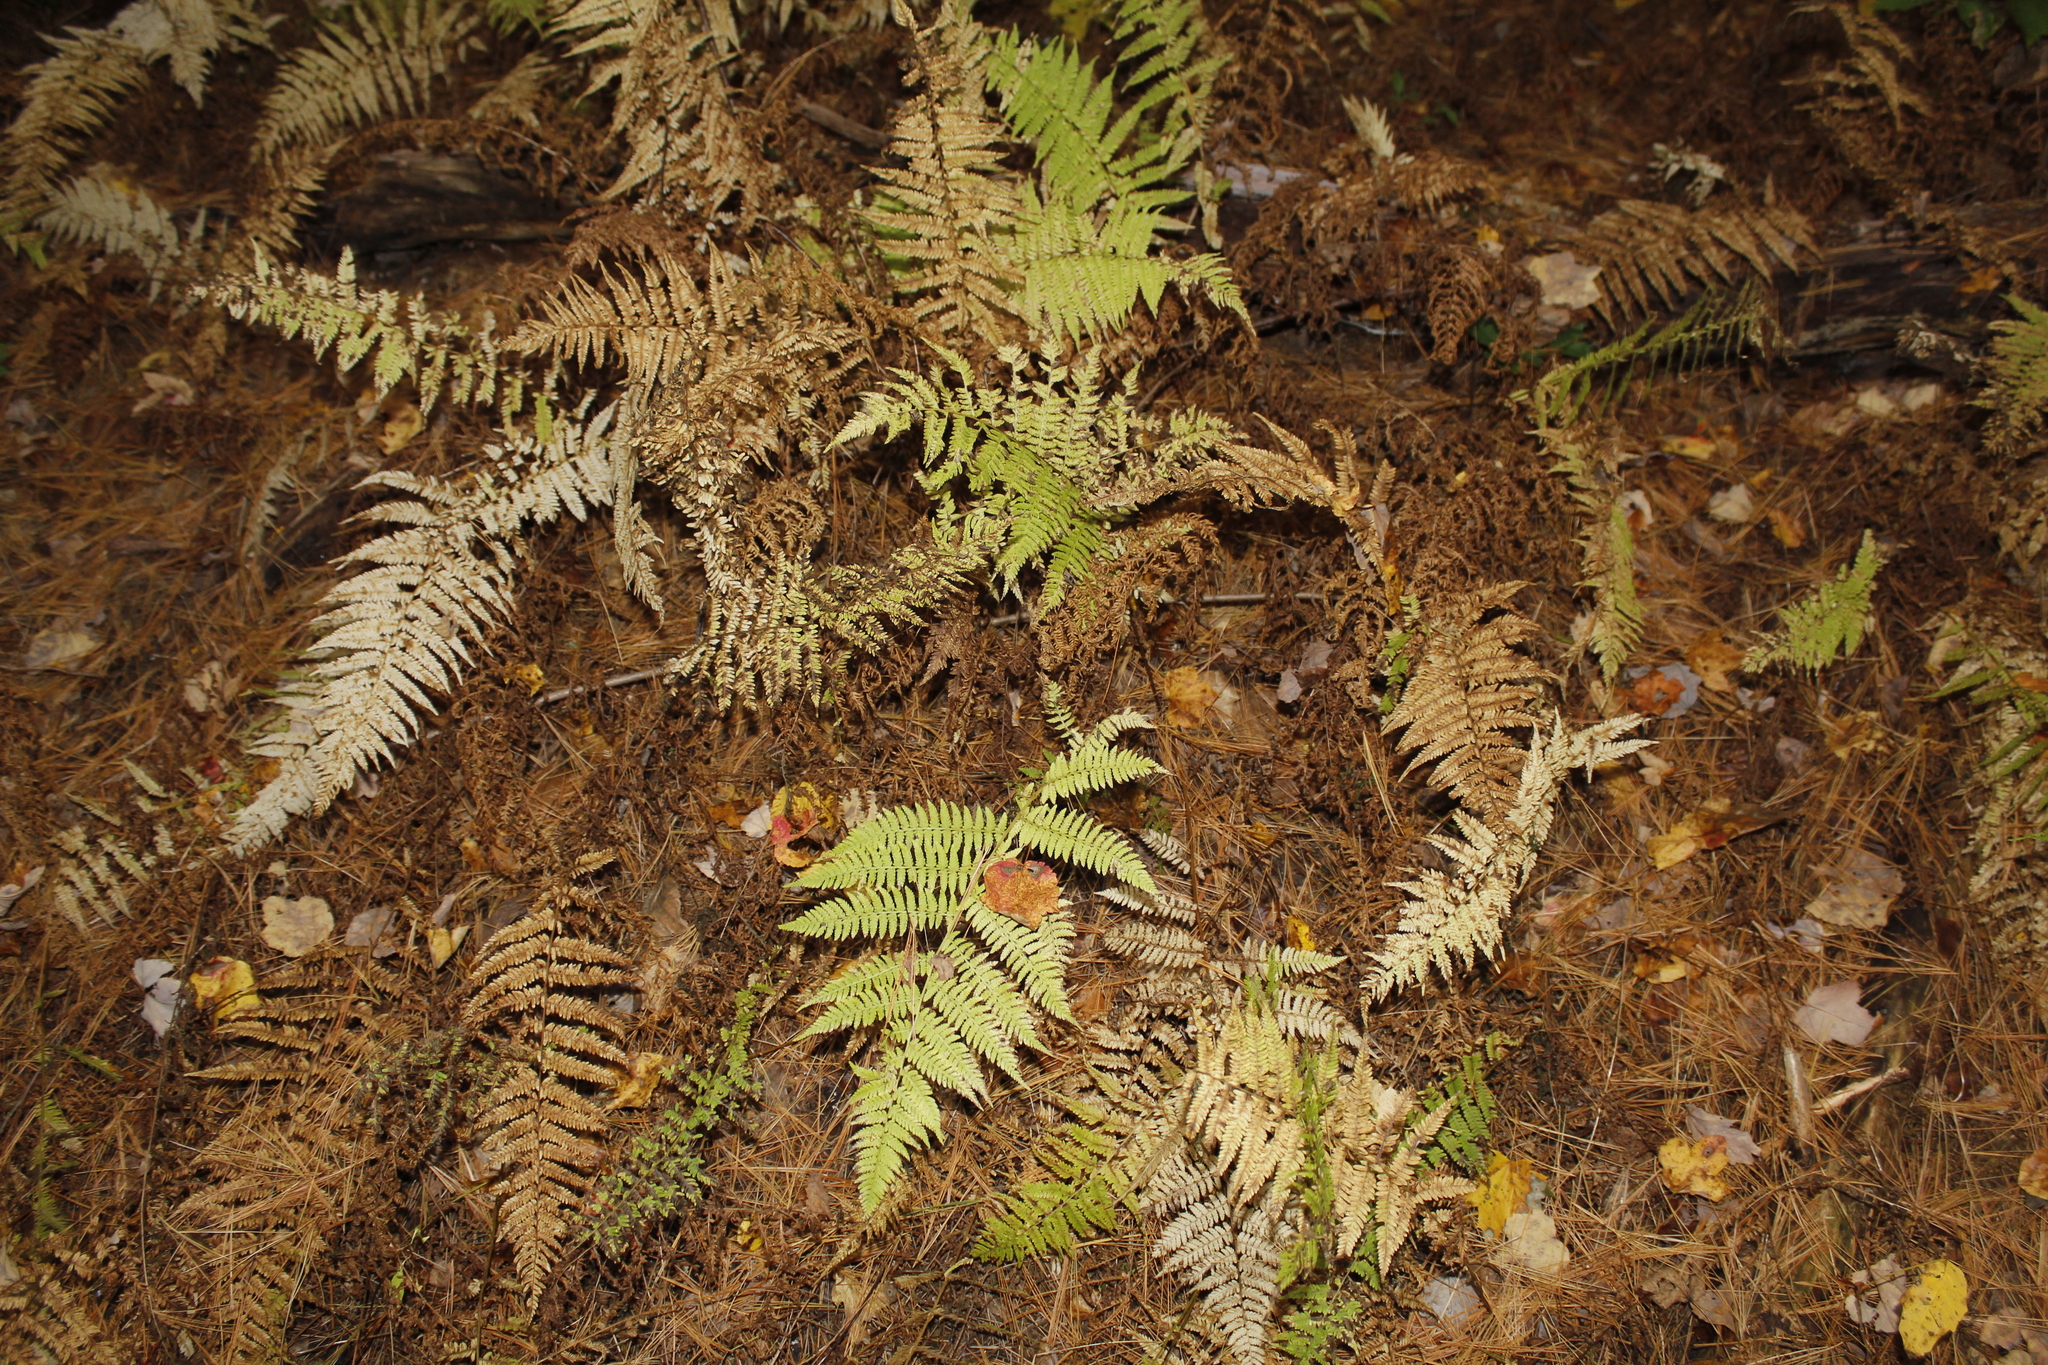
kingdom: Plantae
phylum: Tracheophyta
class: Polypodiopsida
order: Polypodiales
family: Dennstaedtiaceae
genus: Sitobolium
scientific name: Sitobolium punctilobum
